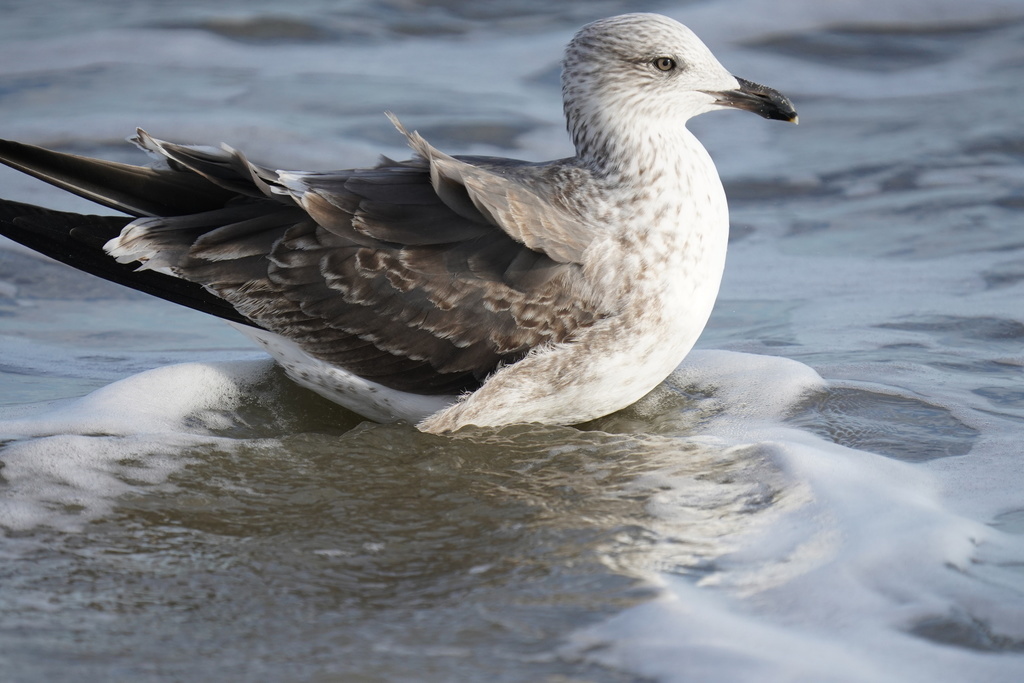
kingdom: Animalia
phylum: Chordata
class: Aves
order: Charadriiformes
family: Laridae
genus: Larus
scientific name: Larus fuscus
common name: Lesser black-backed gull
